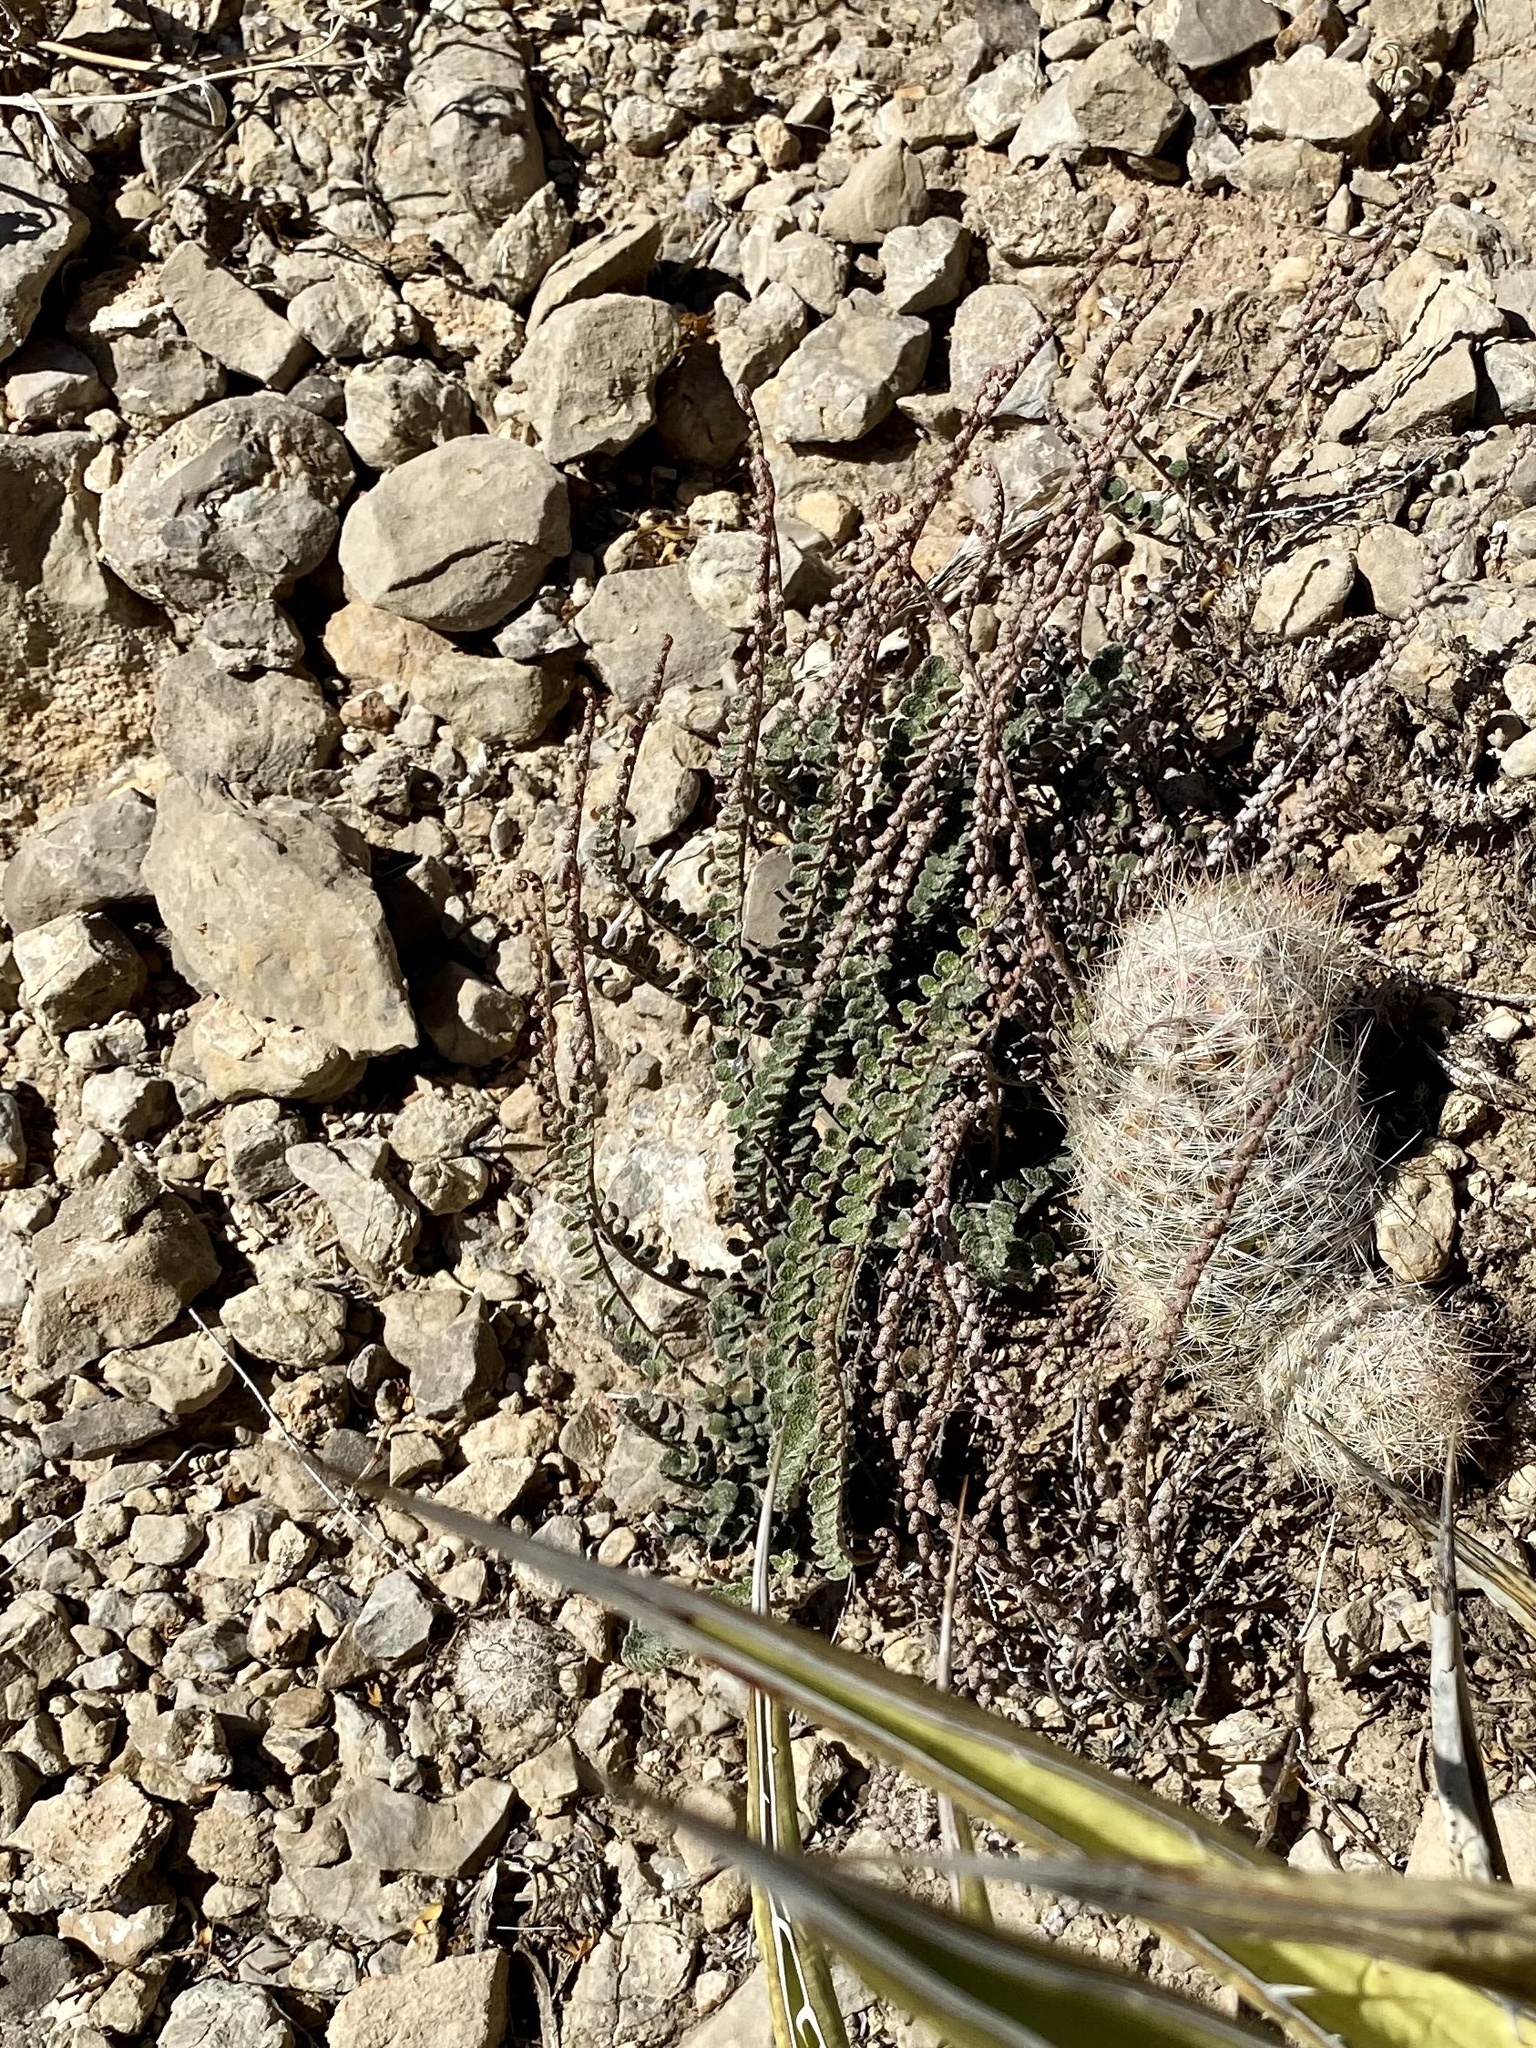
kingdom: Plantae
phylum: Tracheophyta
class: Polypodiopsida
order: Polypodiales
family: Pteridaceae
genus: Astrolepis
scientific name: Astrolepis cochisensis
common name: Scaly cloak fern
